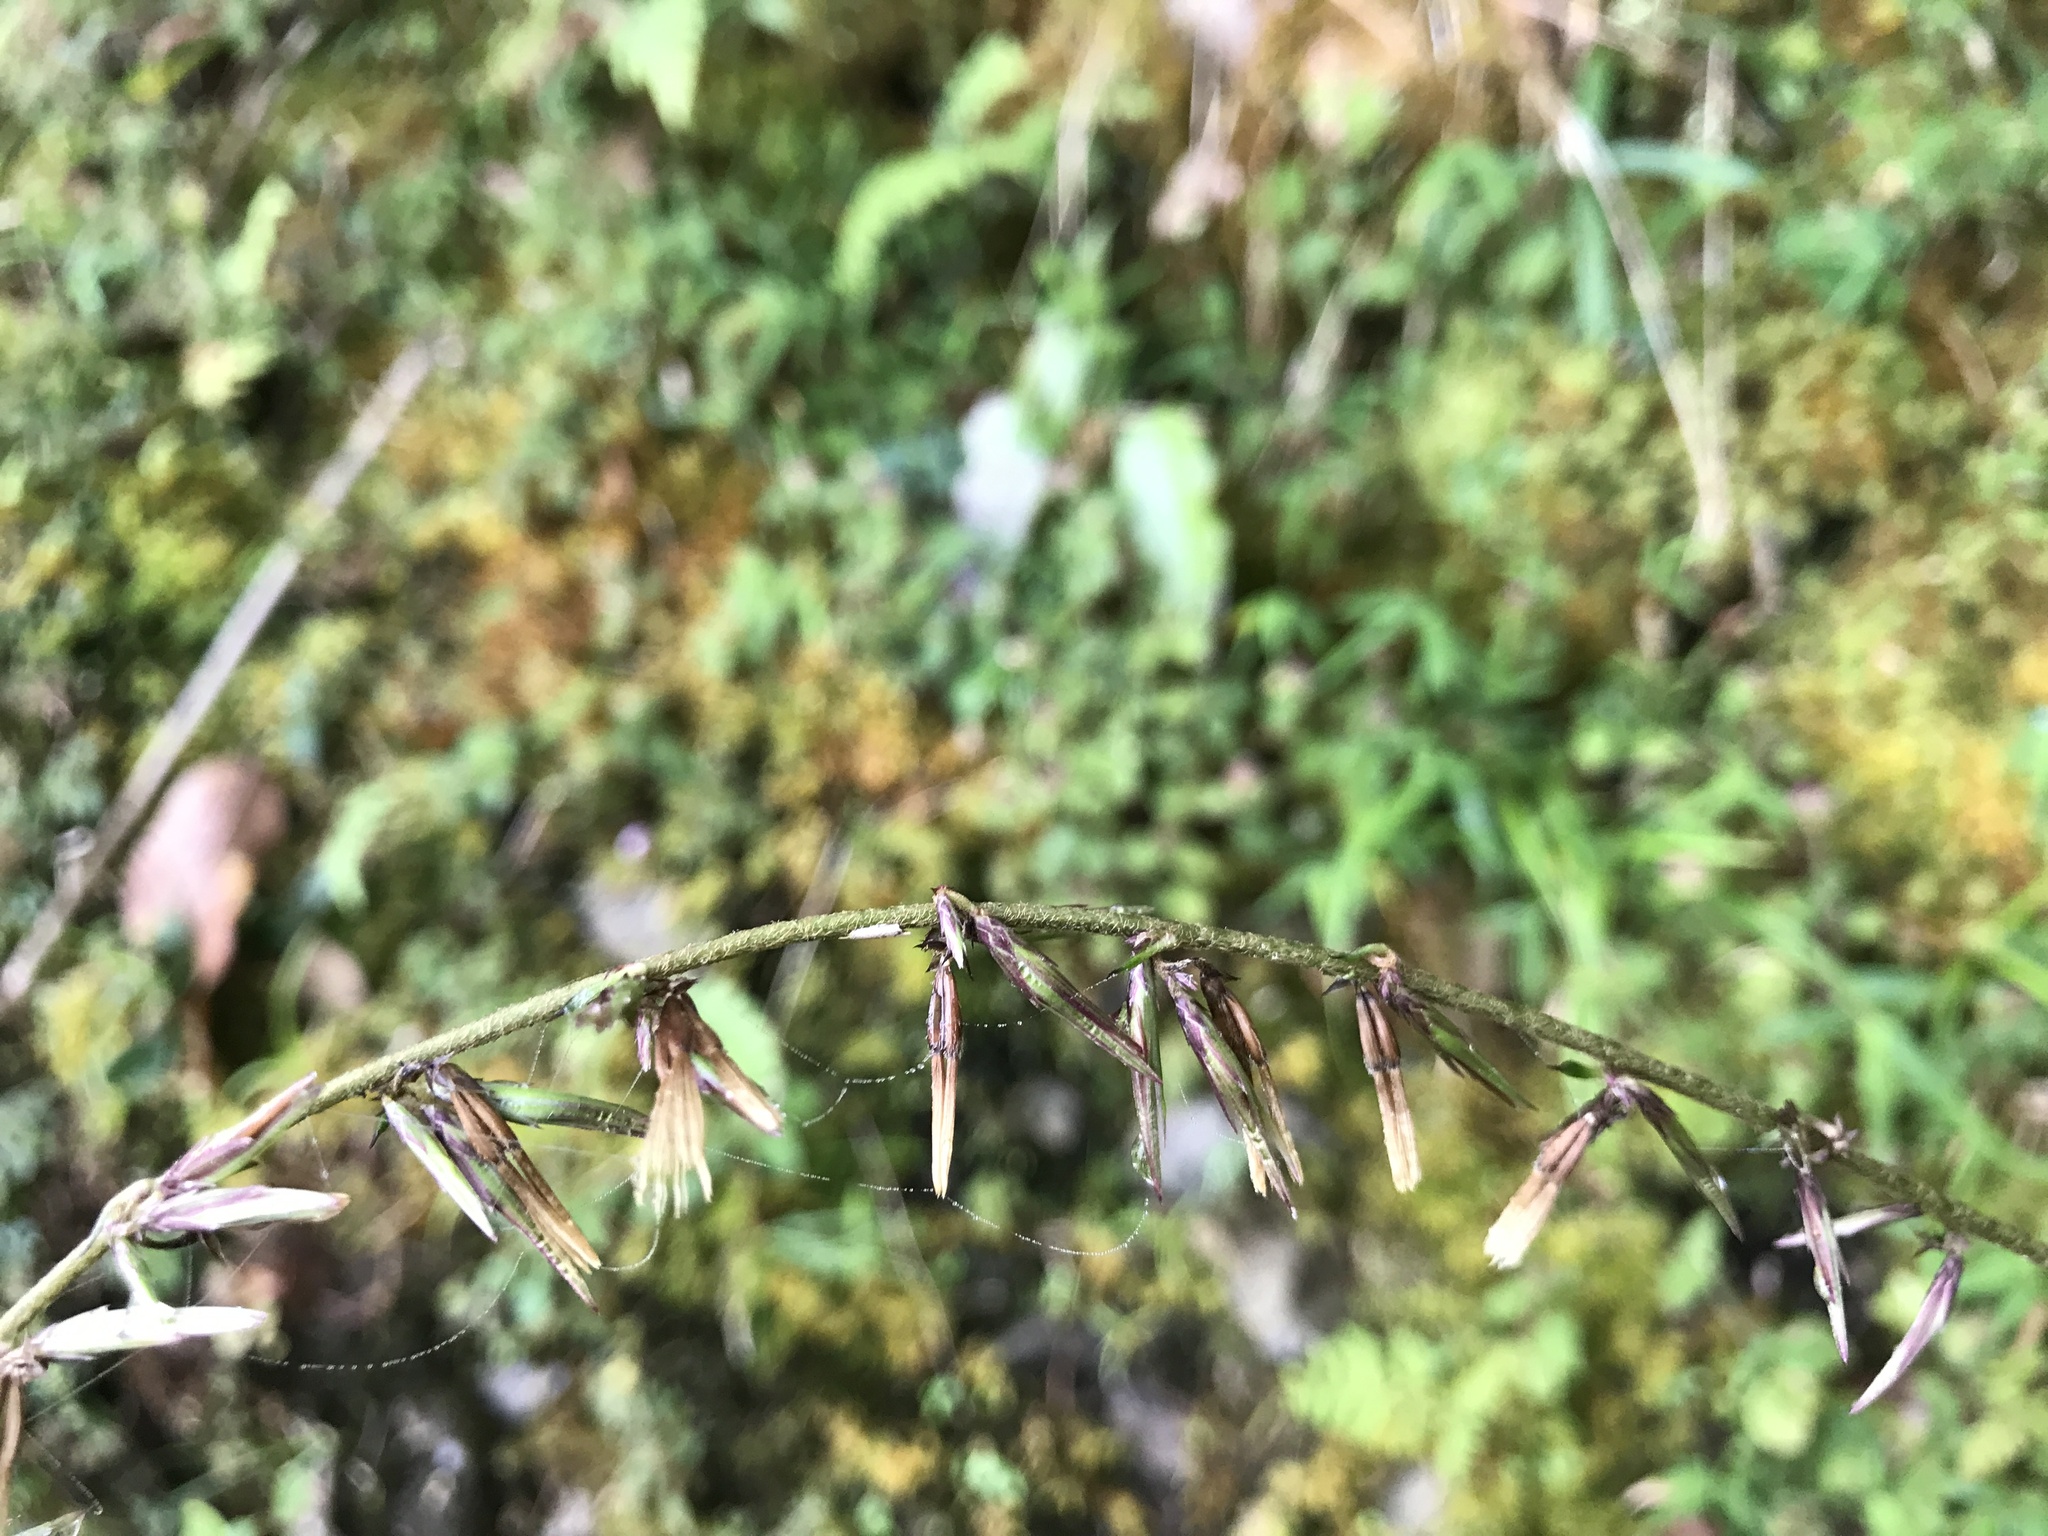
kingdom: Plantae
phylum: Tracheophyta
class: Magnoliopsida
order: Asterales
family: Asteraceae
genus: Ainsliaea
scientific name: Ainsliaea henryi
